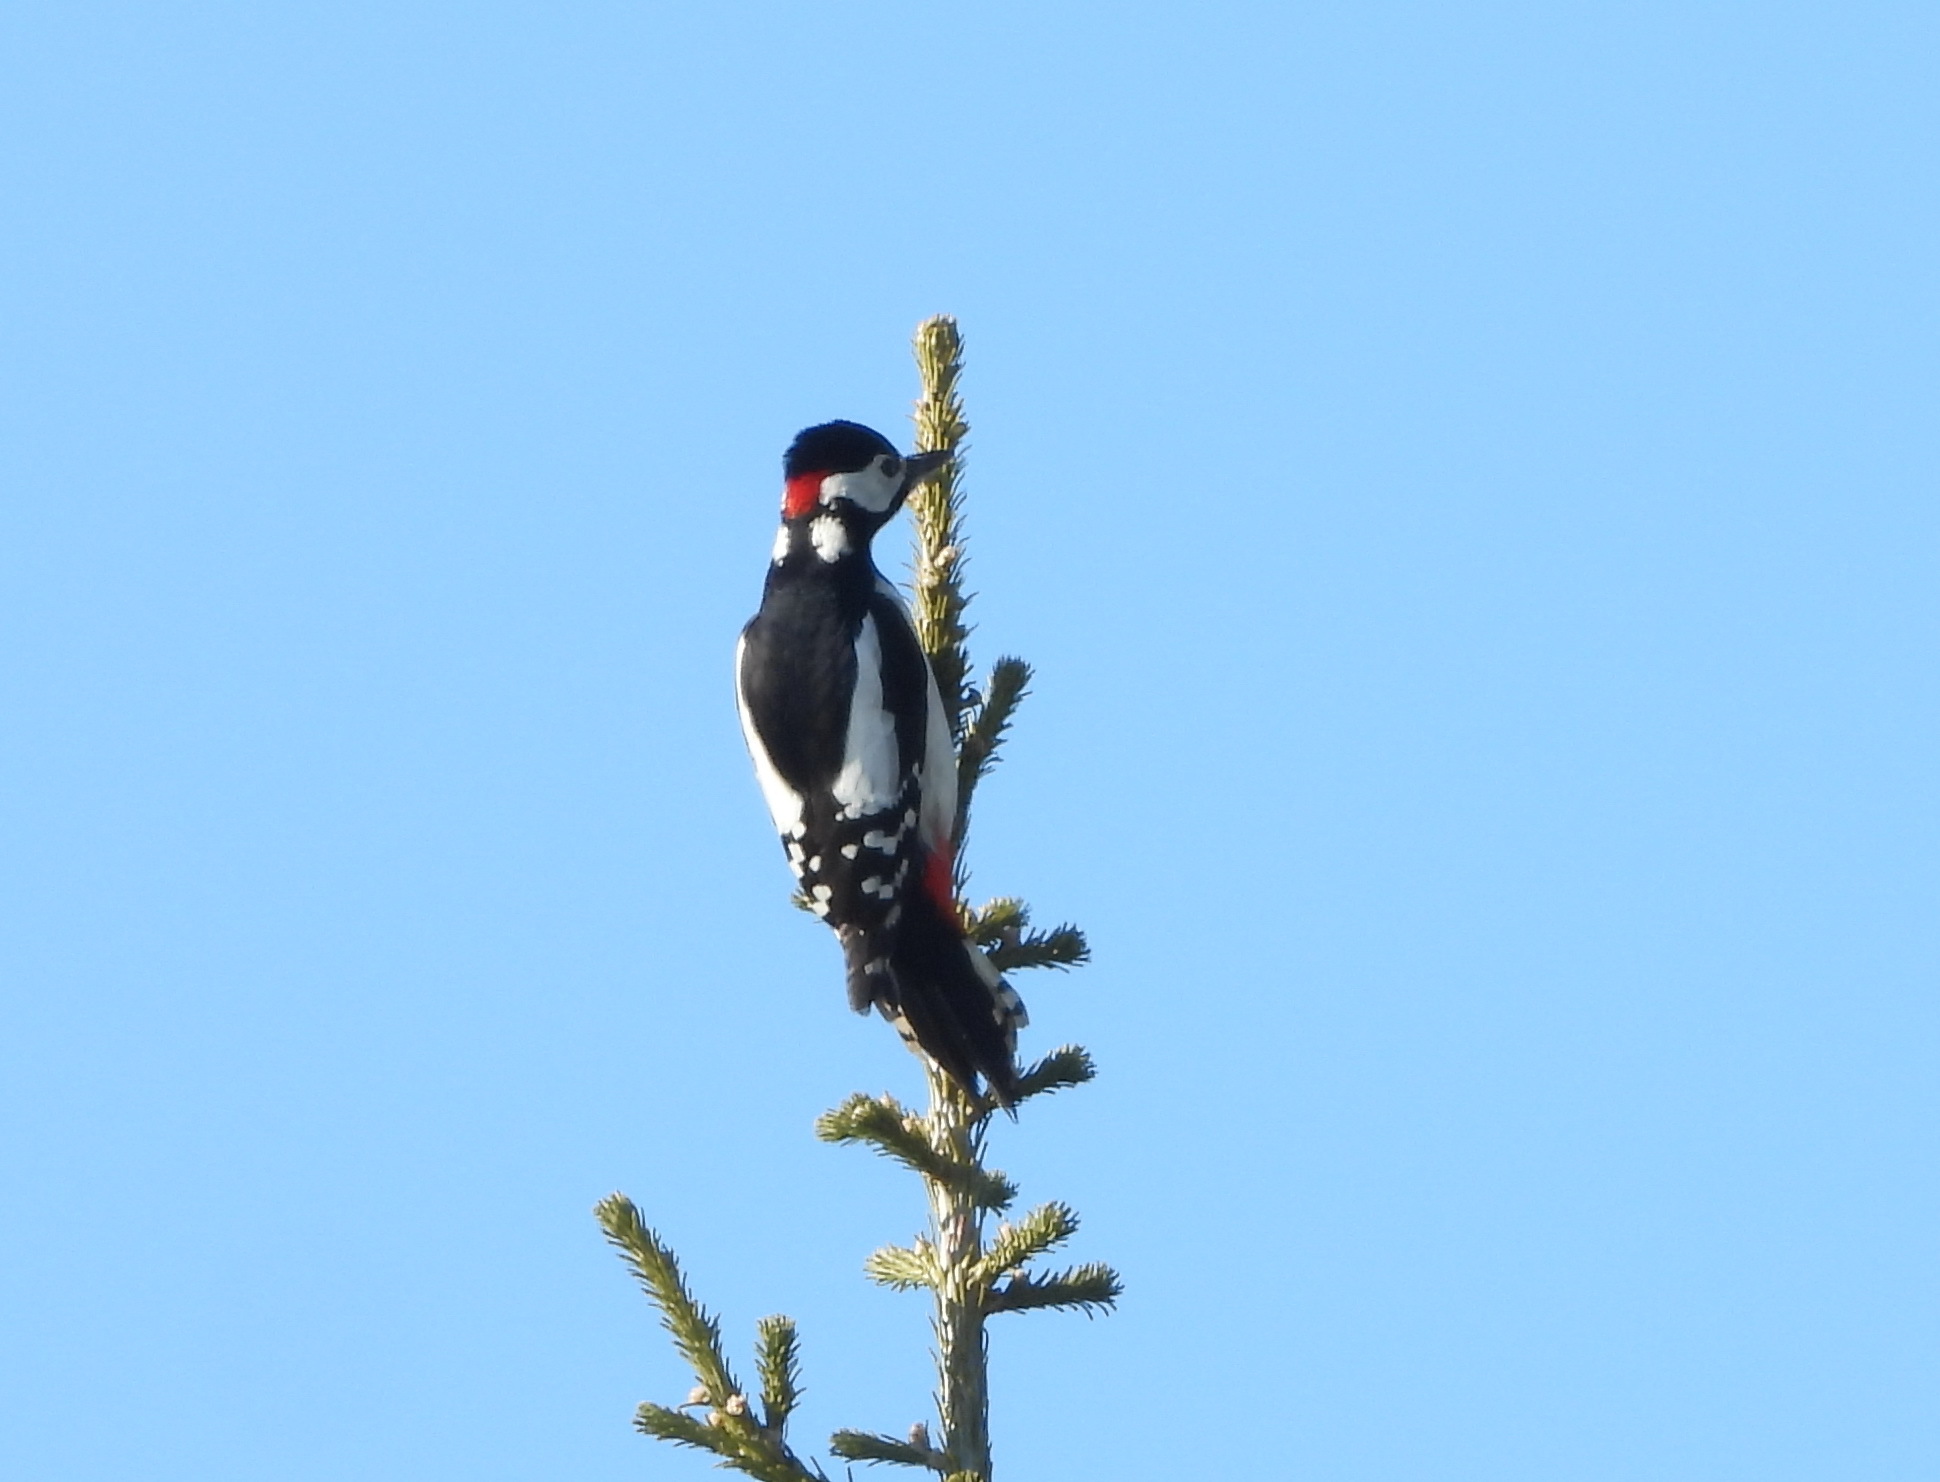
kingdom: Animalia
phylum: Chordata
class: Aves
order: Piciformes
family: Picidae
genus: Dendrocopos
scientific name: Dendrocopos major
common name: Great spotted woodpecker
